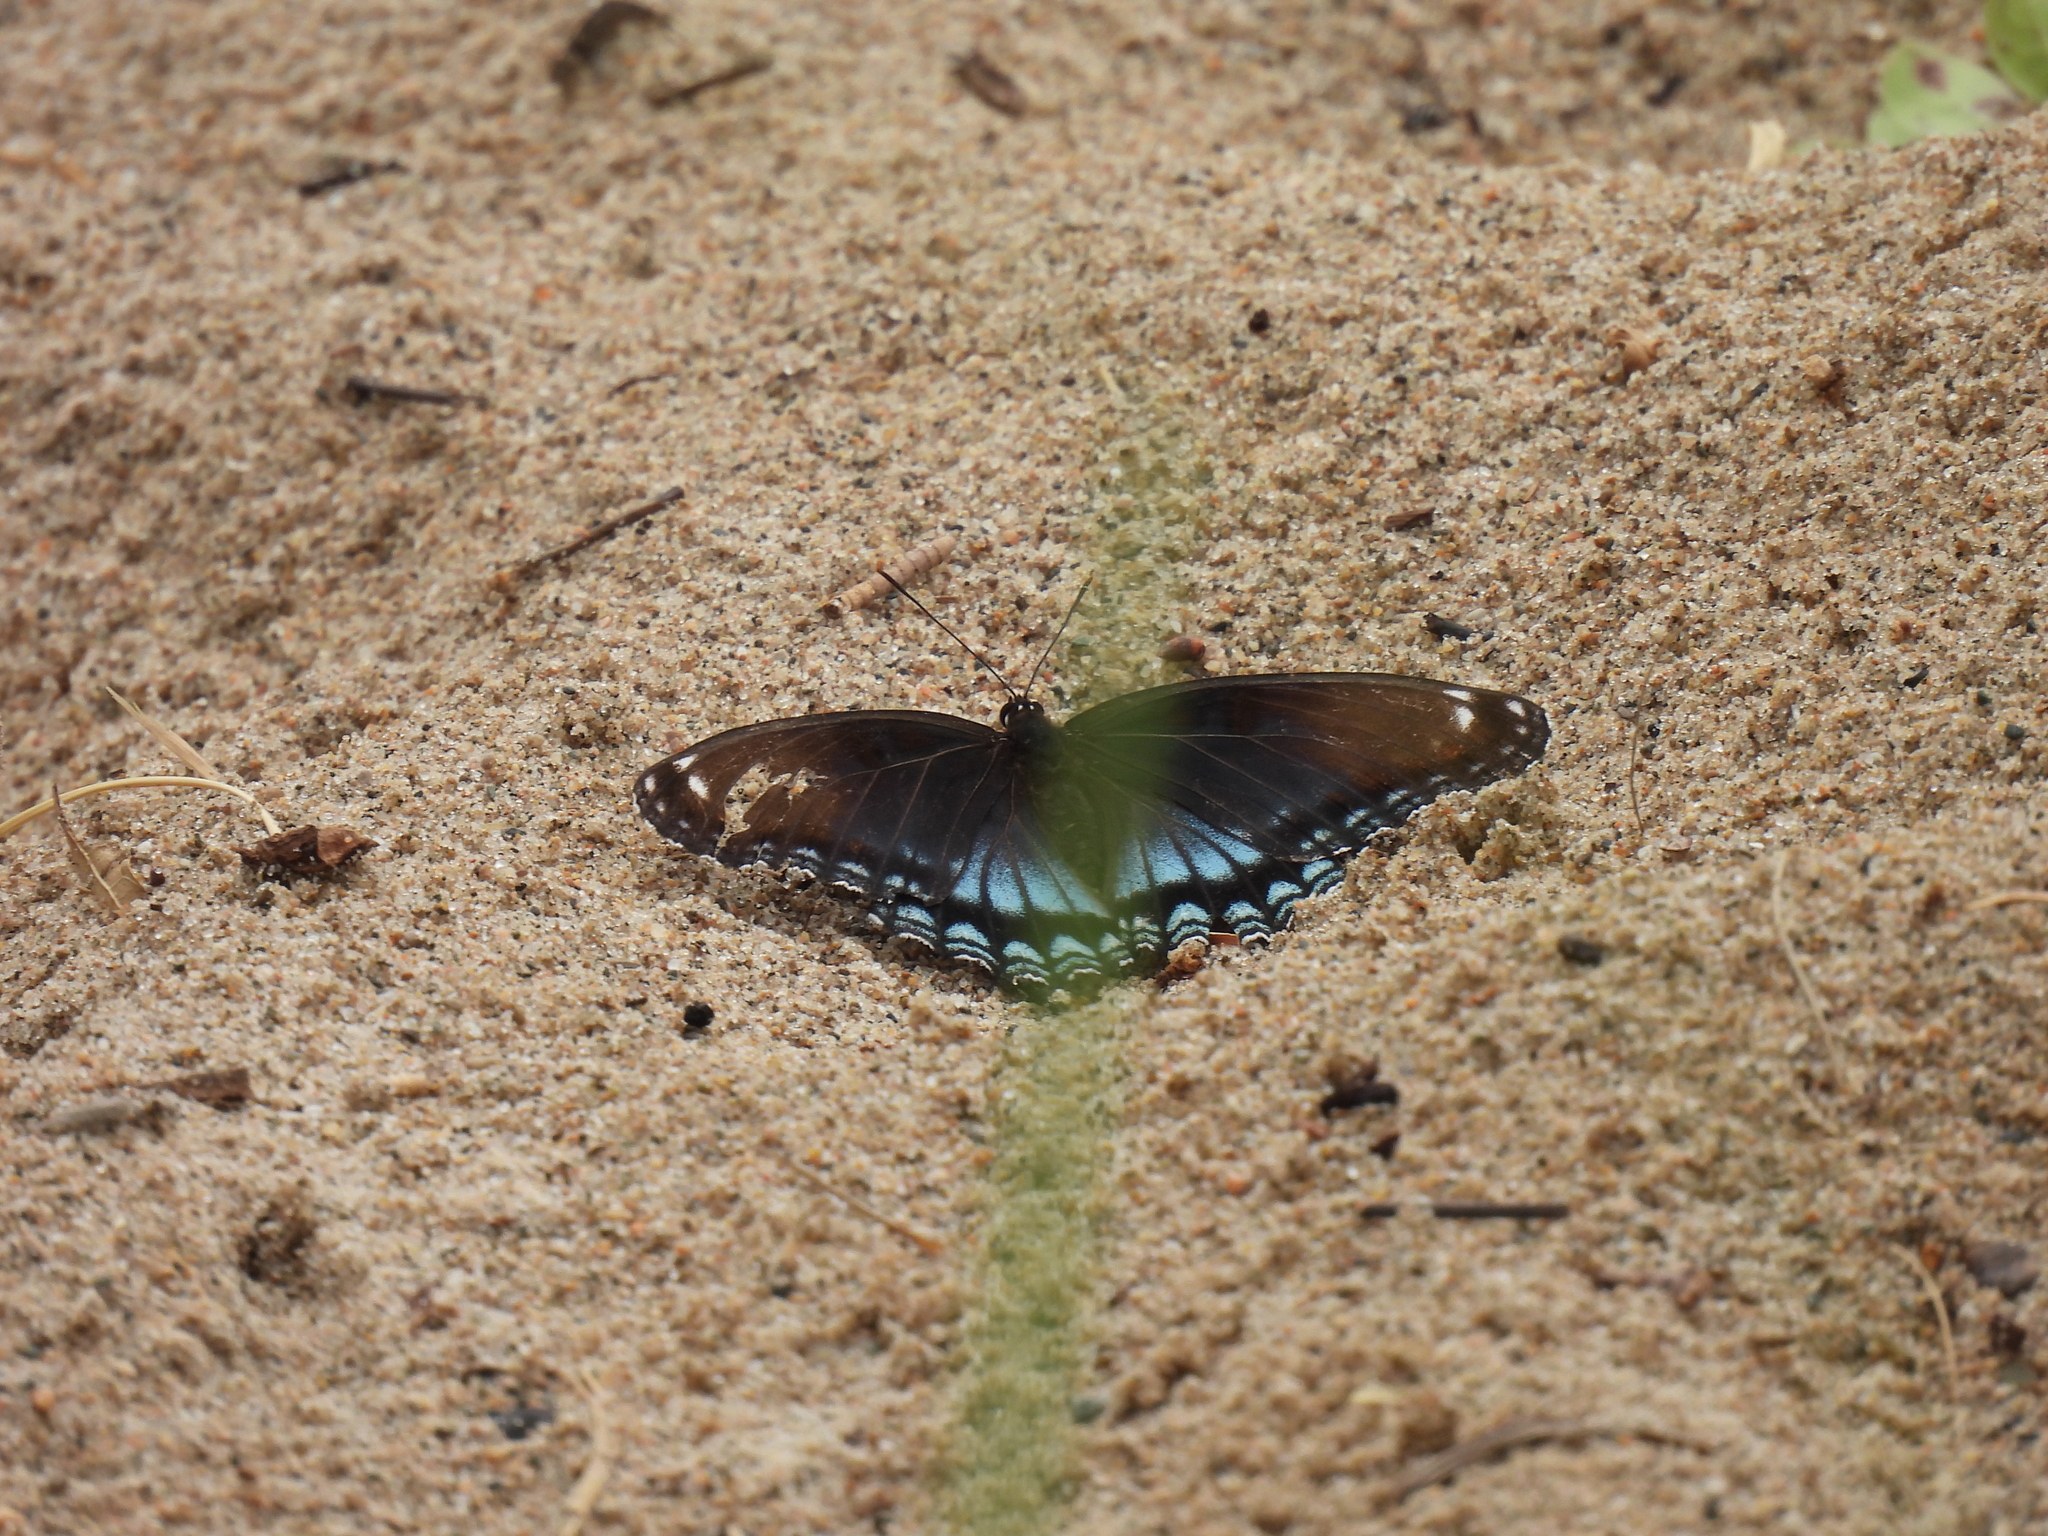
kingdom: Animalia
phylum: Arthropoda
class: Insecta
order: Lepidoptera
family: Nymphalidae
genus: Limenitis
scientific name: Limenitis astyanax
